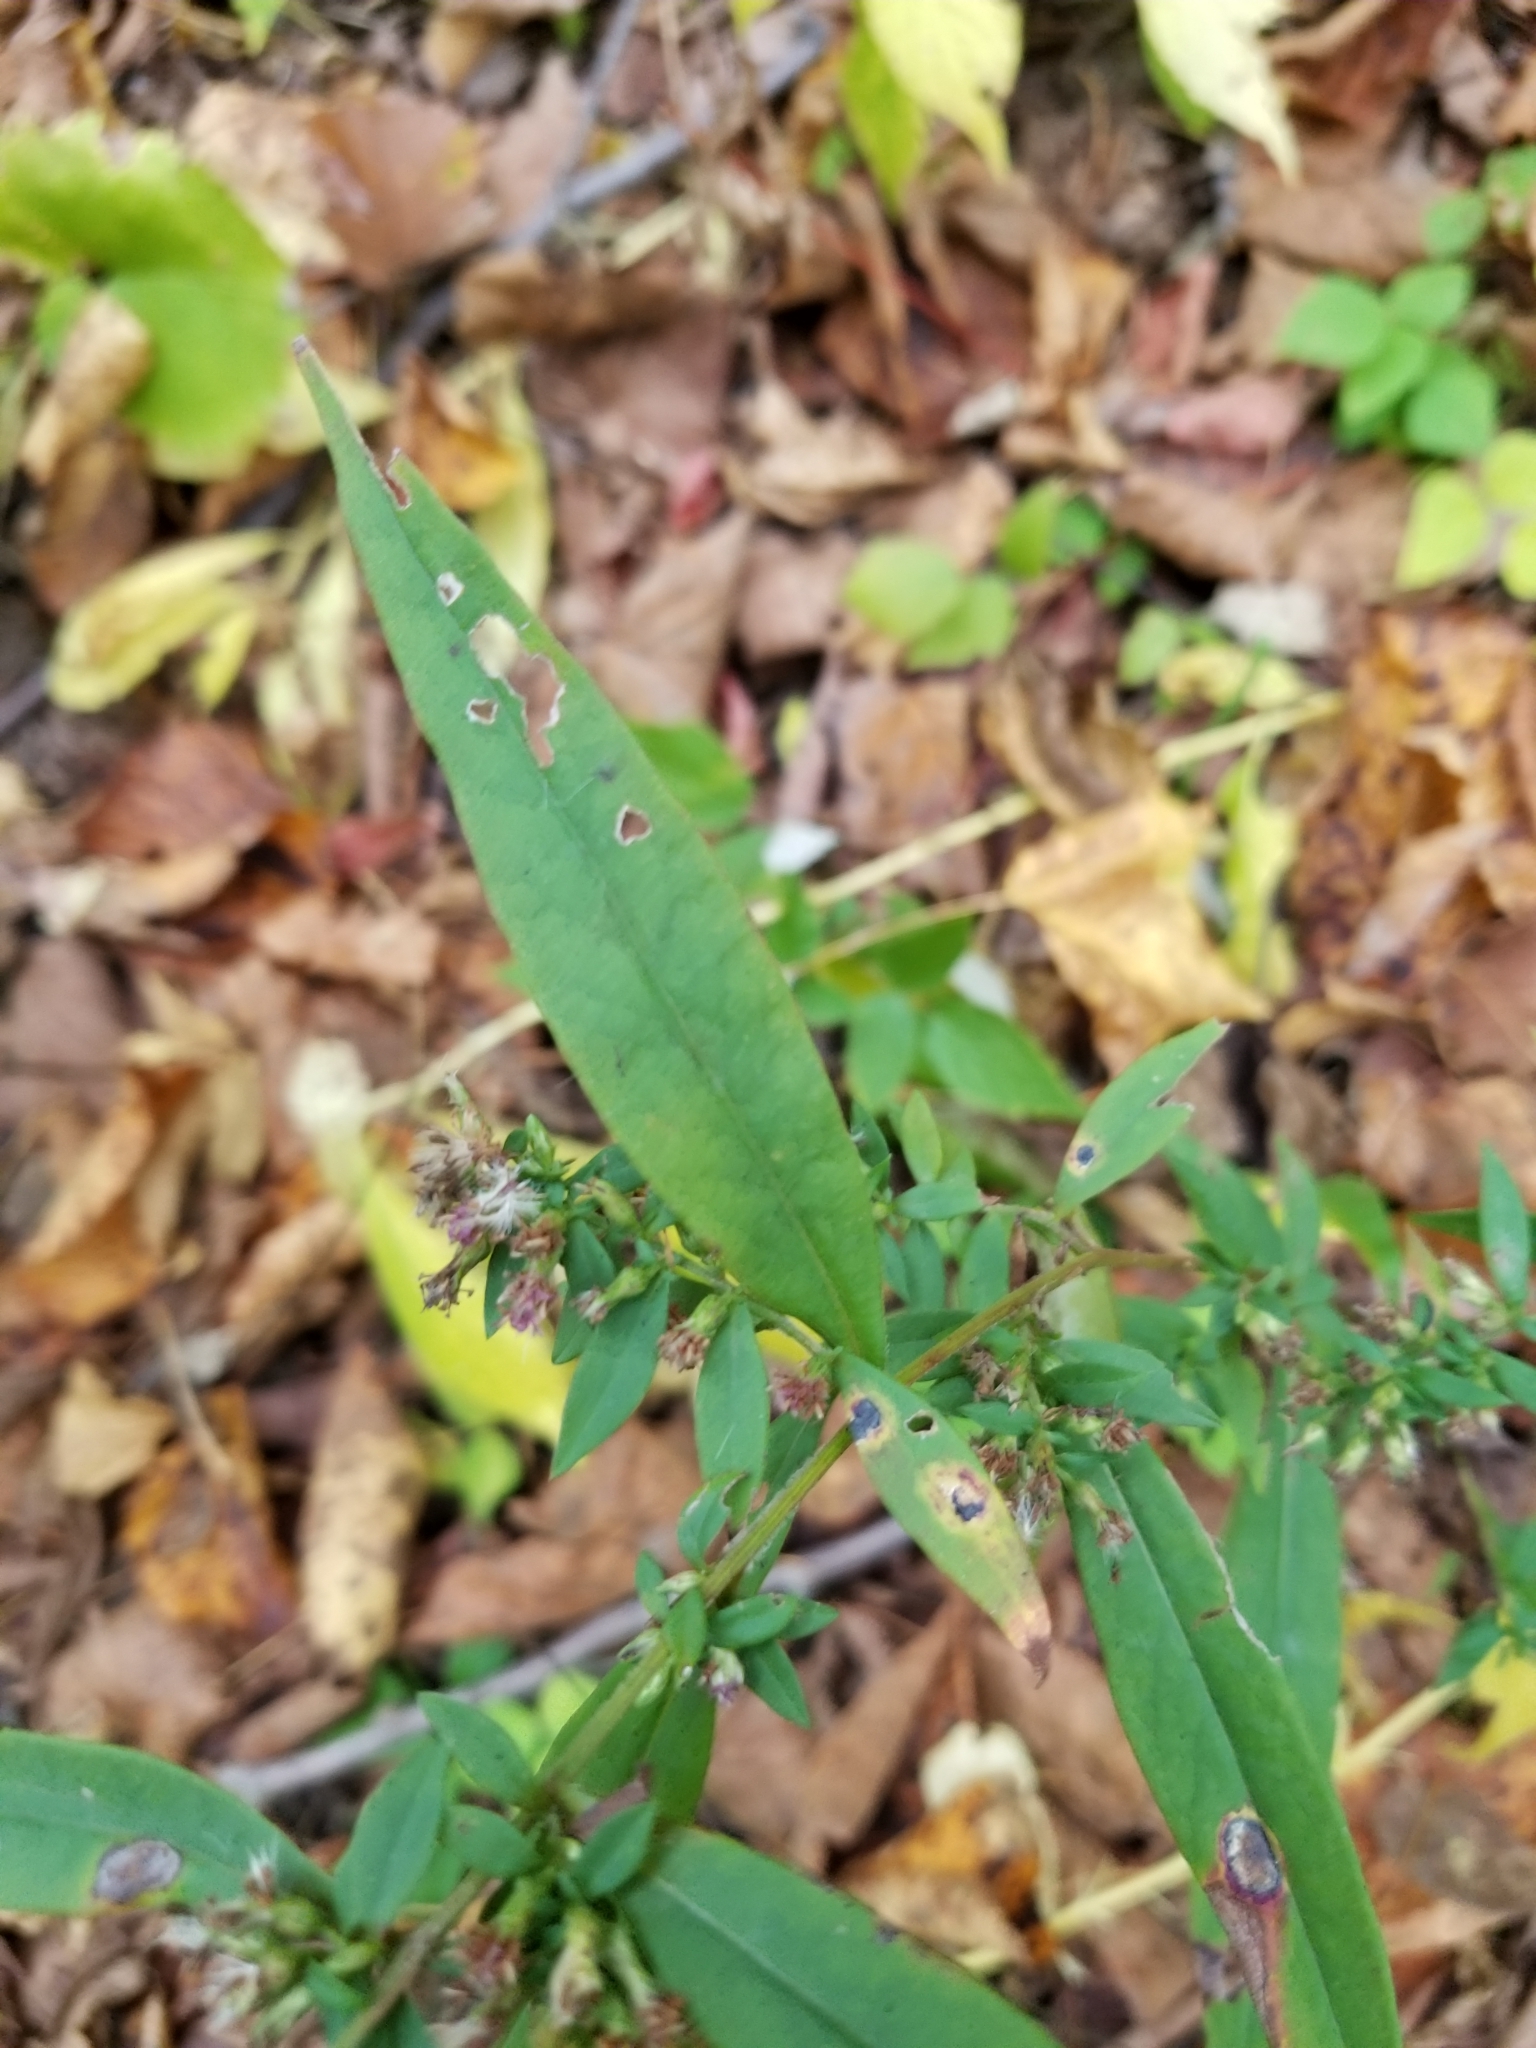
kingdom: Animalia
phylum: Arthropoda
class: Insecta
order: Diptera
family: Cecidomyiidae
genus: Asteromyia
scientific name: Asteromyia laeviana
